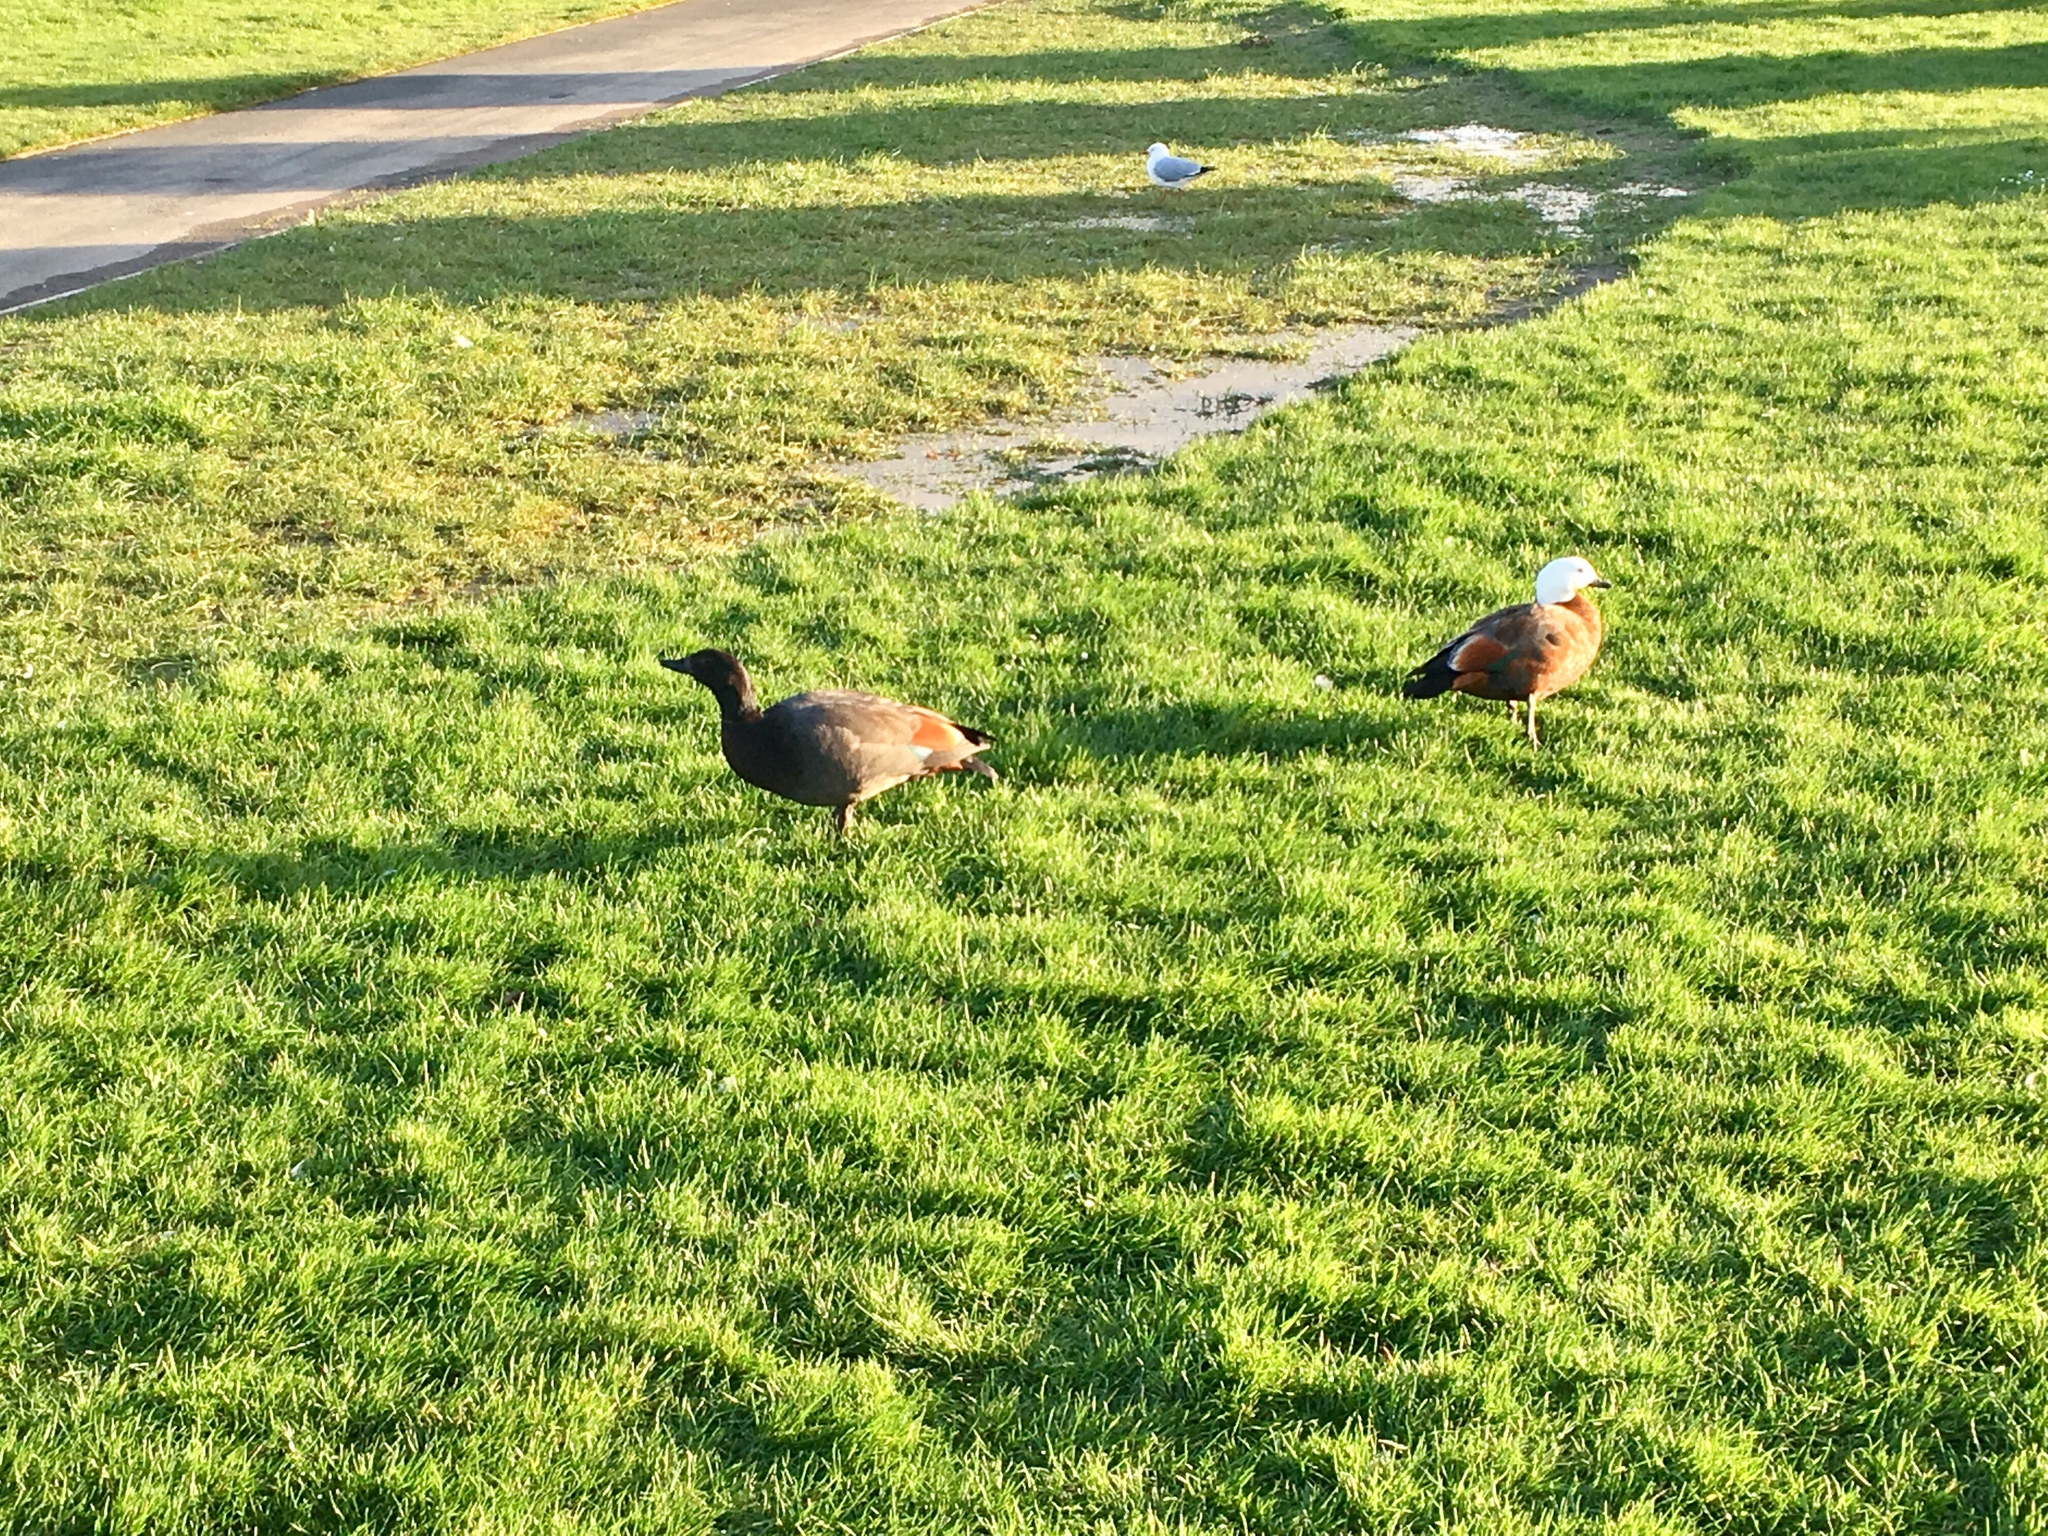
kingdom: Animalia
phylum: Chordata
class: Aves
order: Anseriformes
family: Anatidae
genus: Tadorna
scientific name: Tadorna variegata
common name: Paradise shelduck
